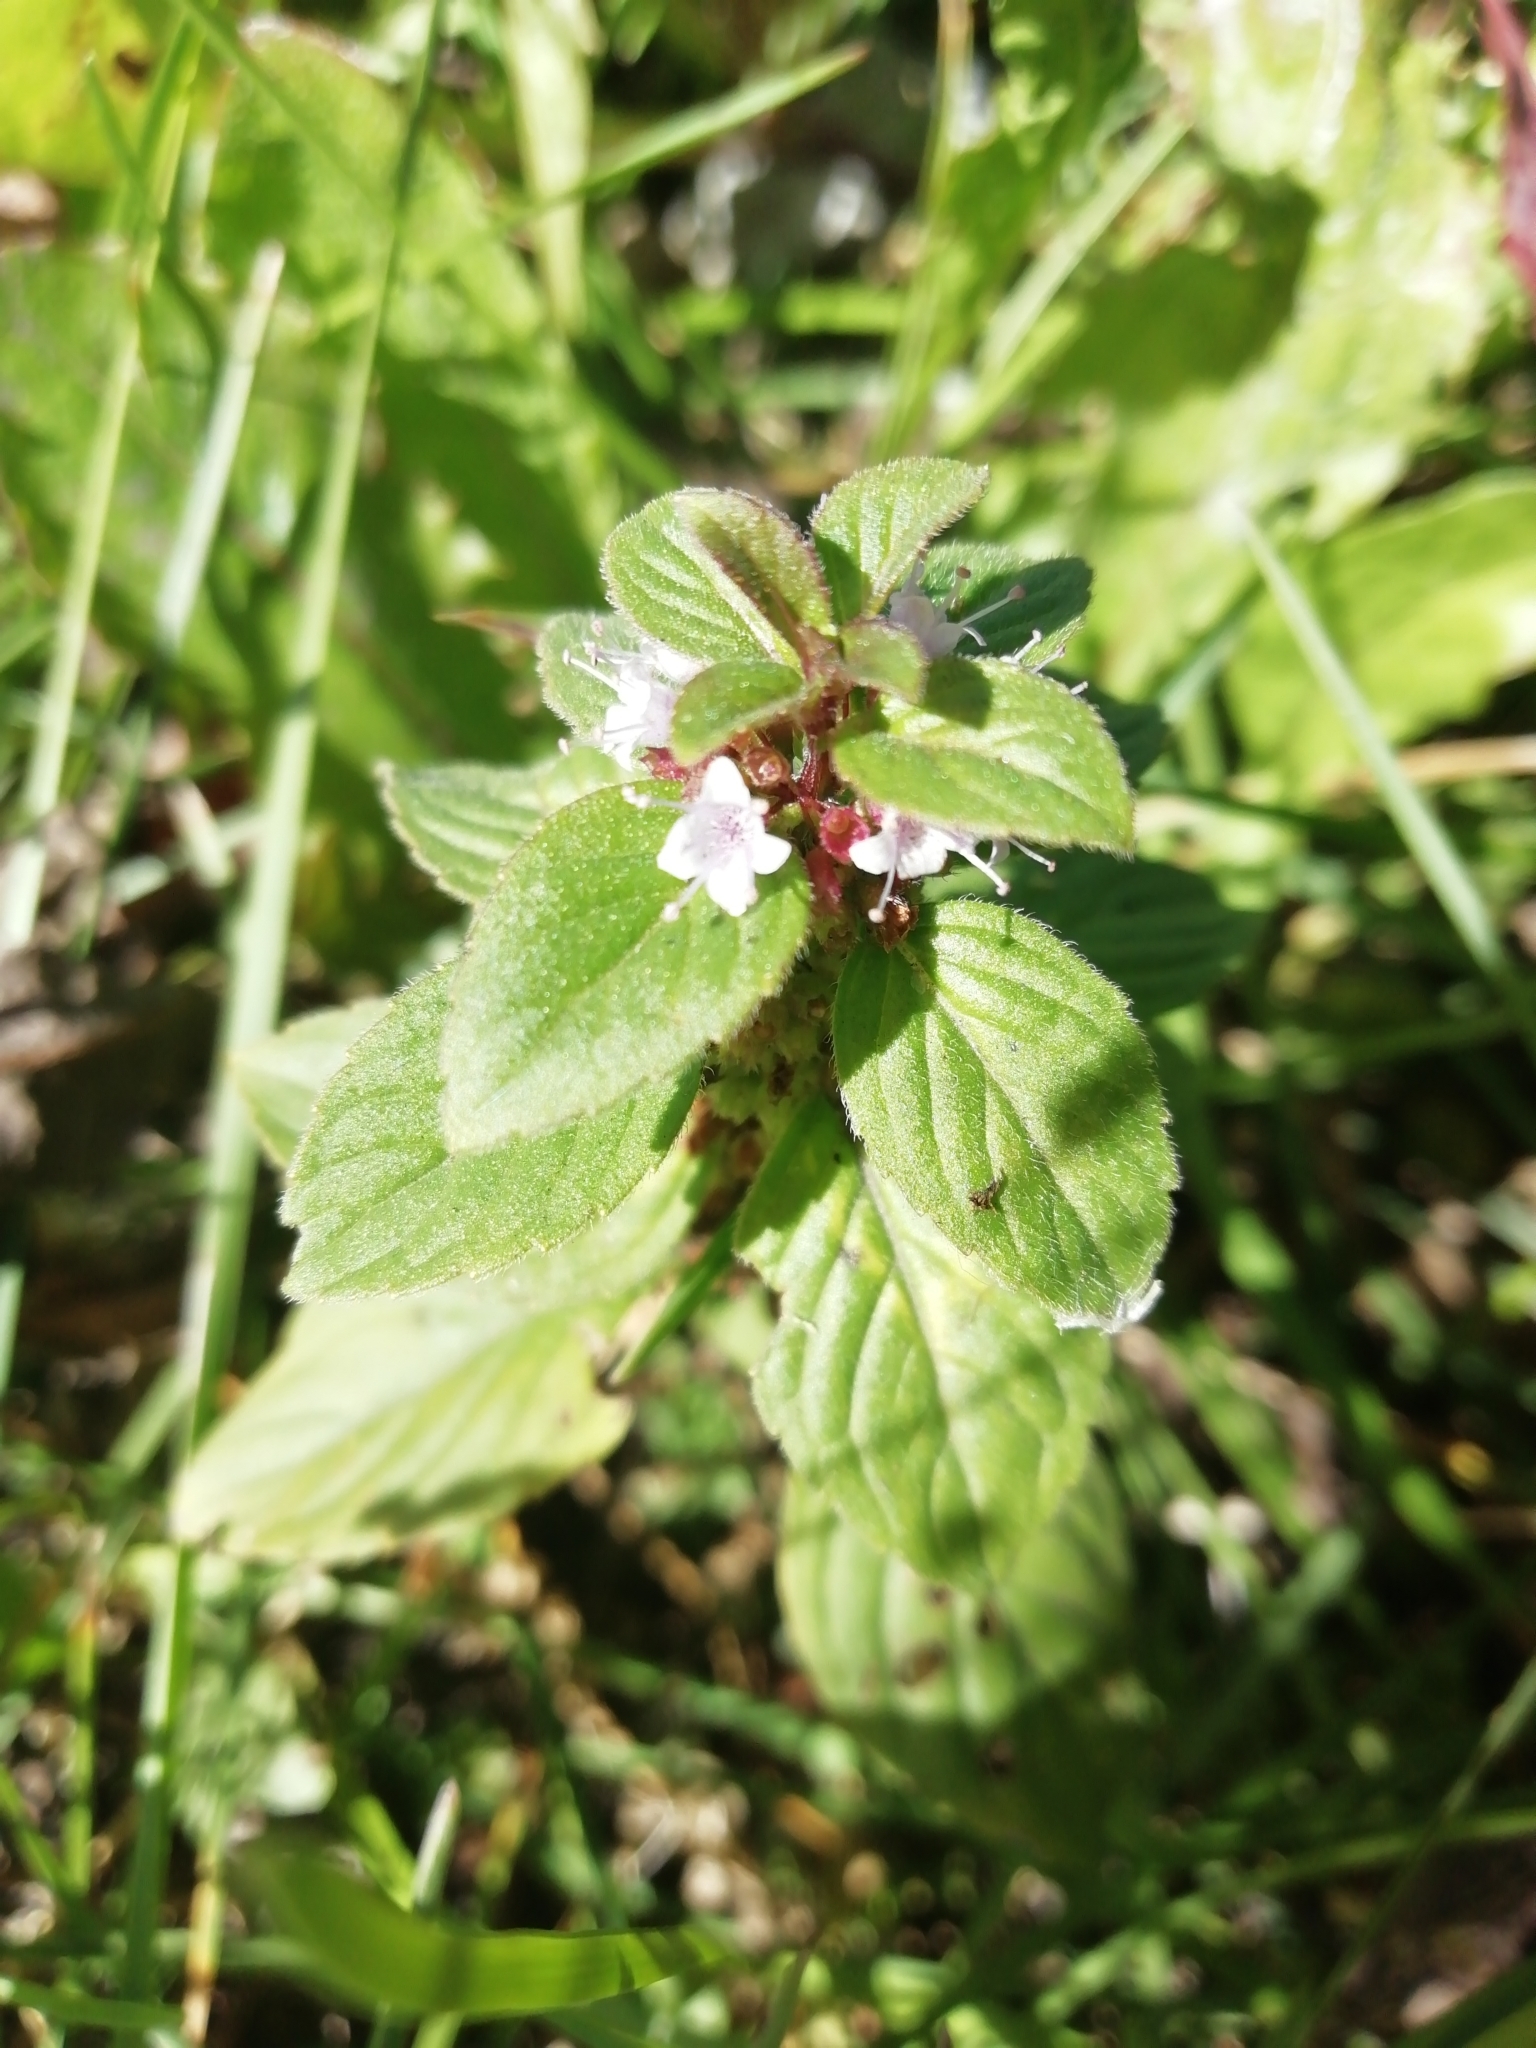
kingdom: Plantae
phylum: Tracheophyta
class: Magnoliopsida
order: Lamiales
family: Lamiaceae
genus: Mentha
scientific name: Mentha arvensis
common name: Corn mint
